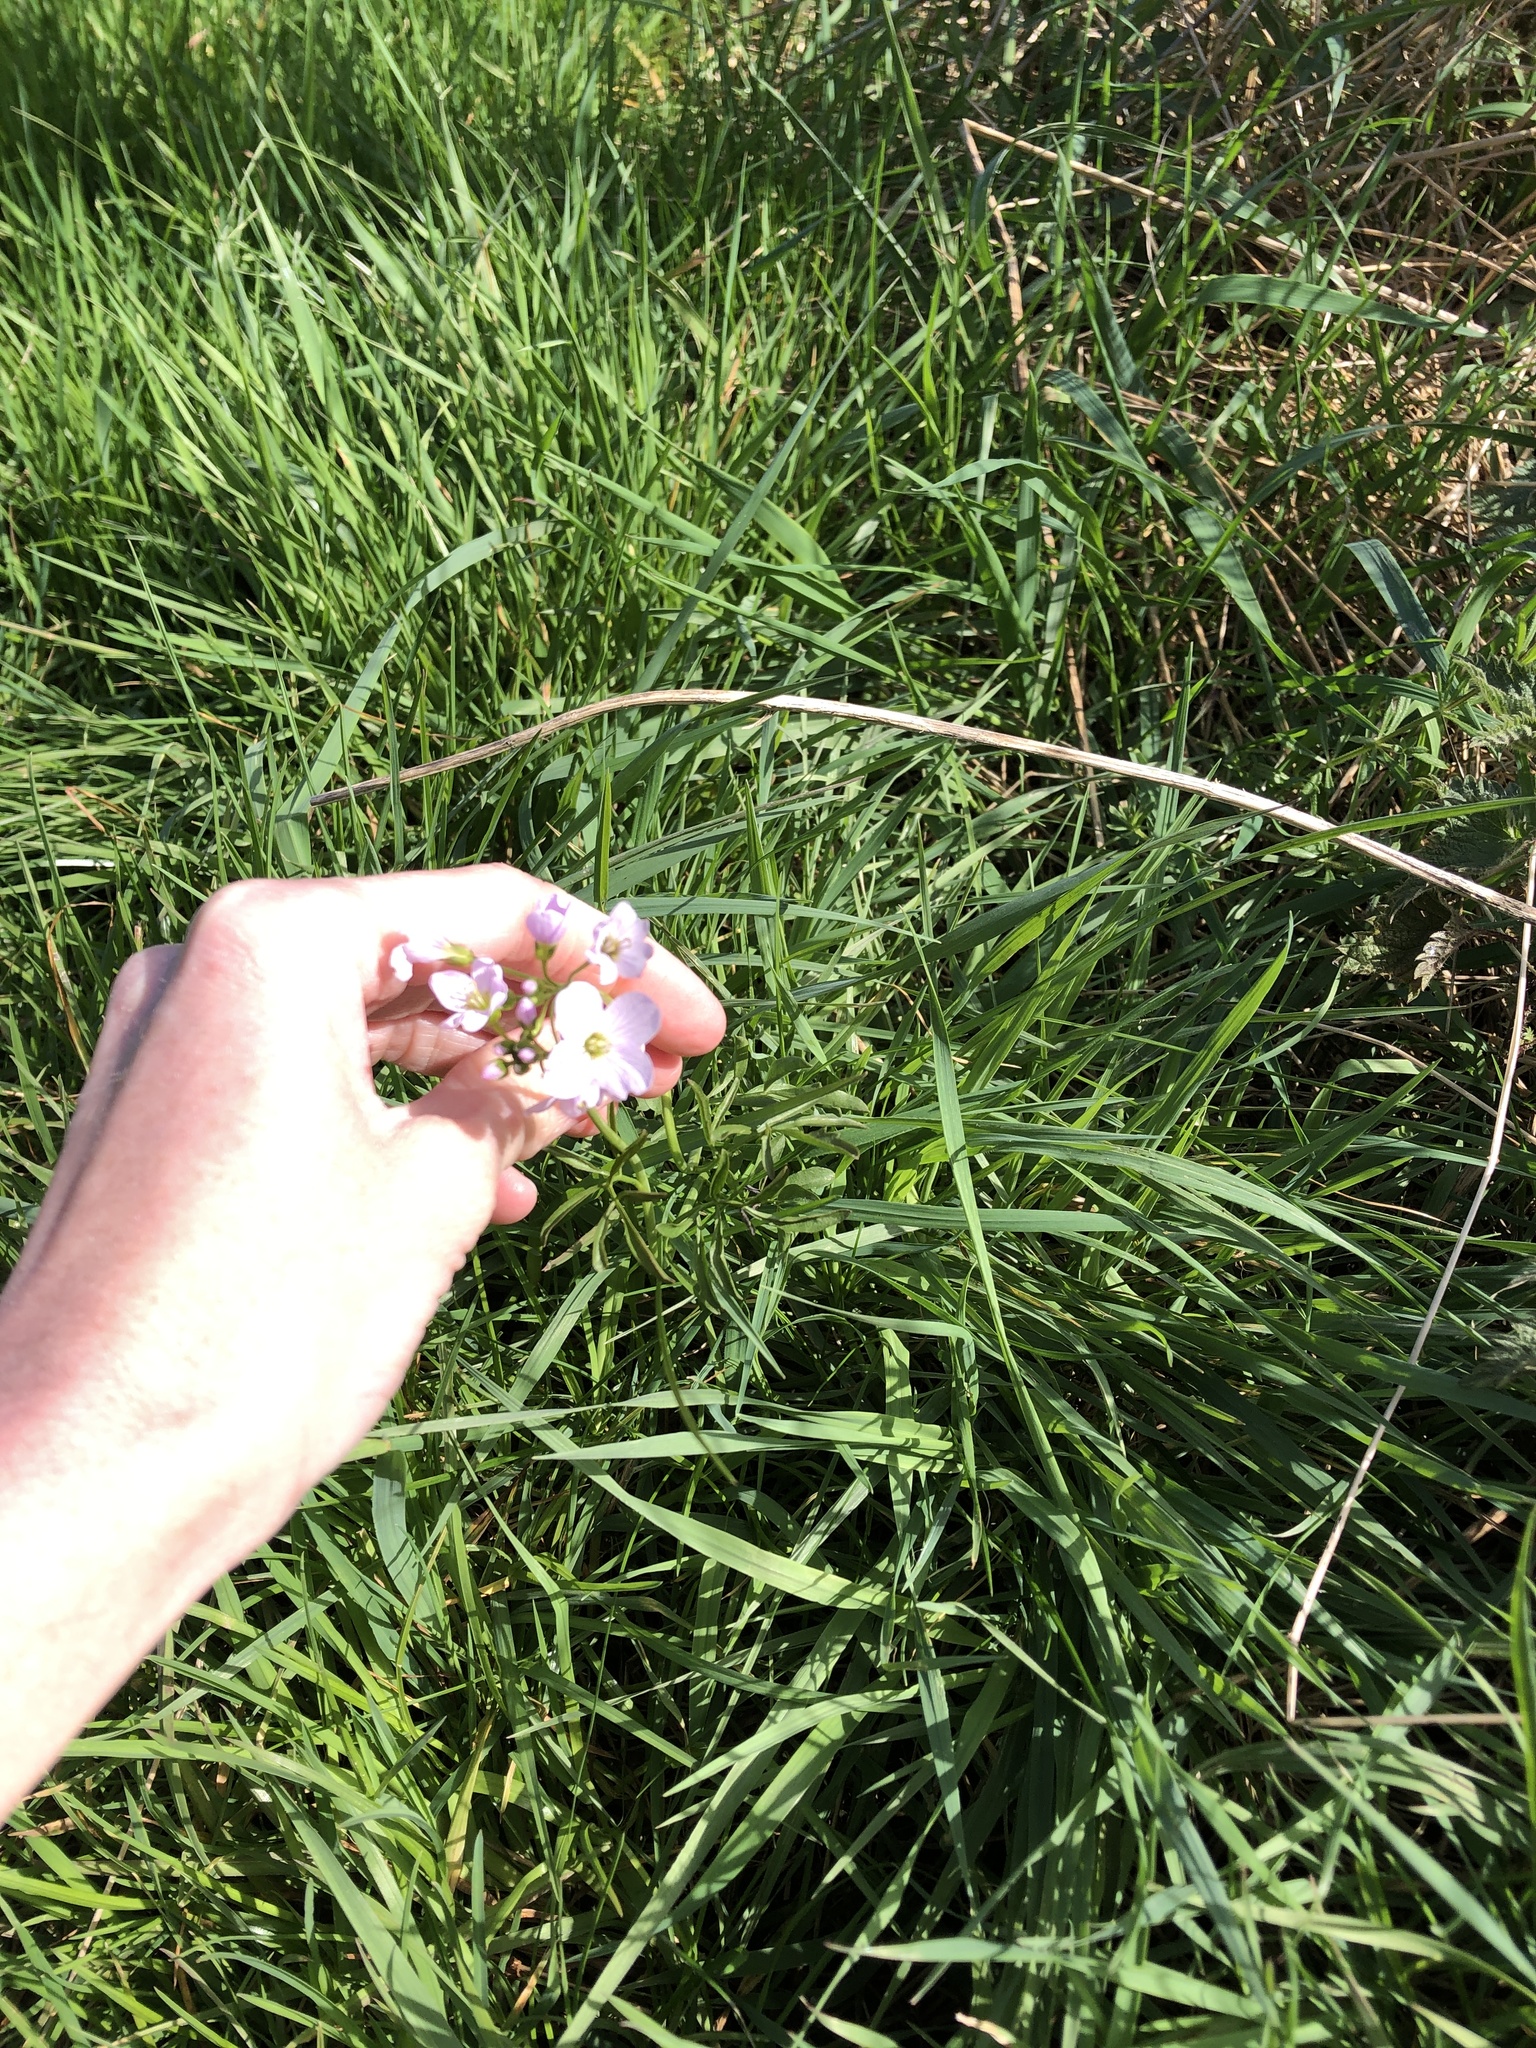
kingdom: Plantae
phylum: Tracheophyta
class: Magnoliopsida
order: Brassicales
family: Brassicaceae
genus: Cardamine
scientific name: Cardamine pratensis
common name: Cuckoo flower
